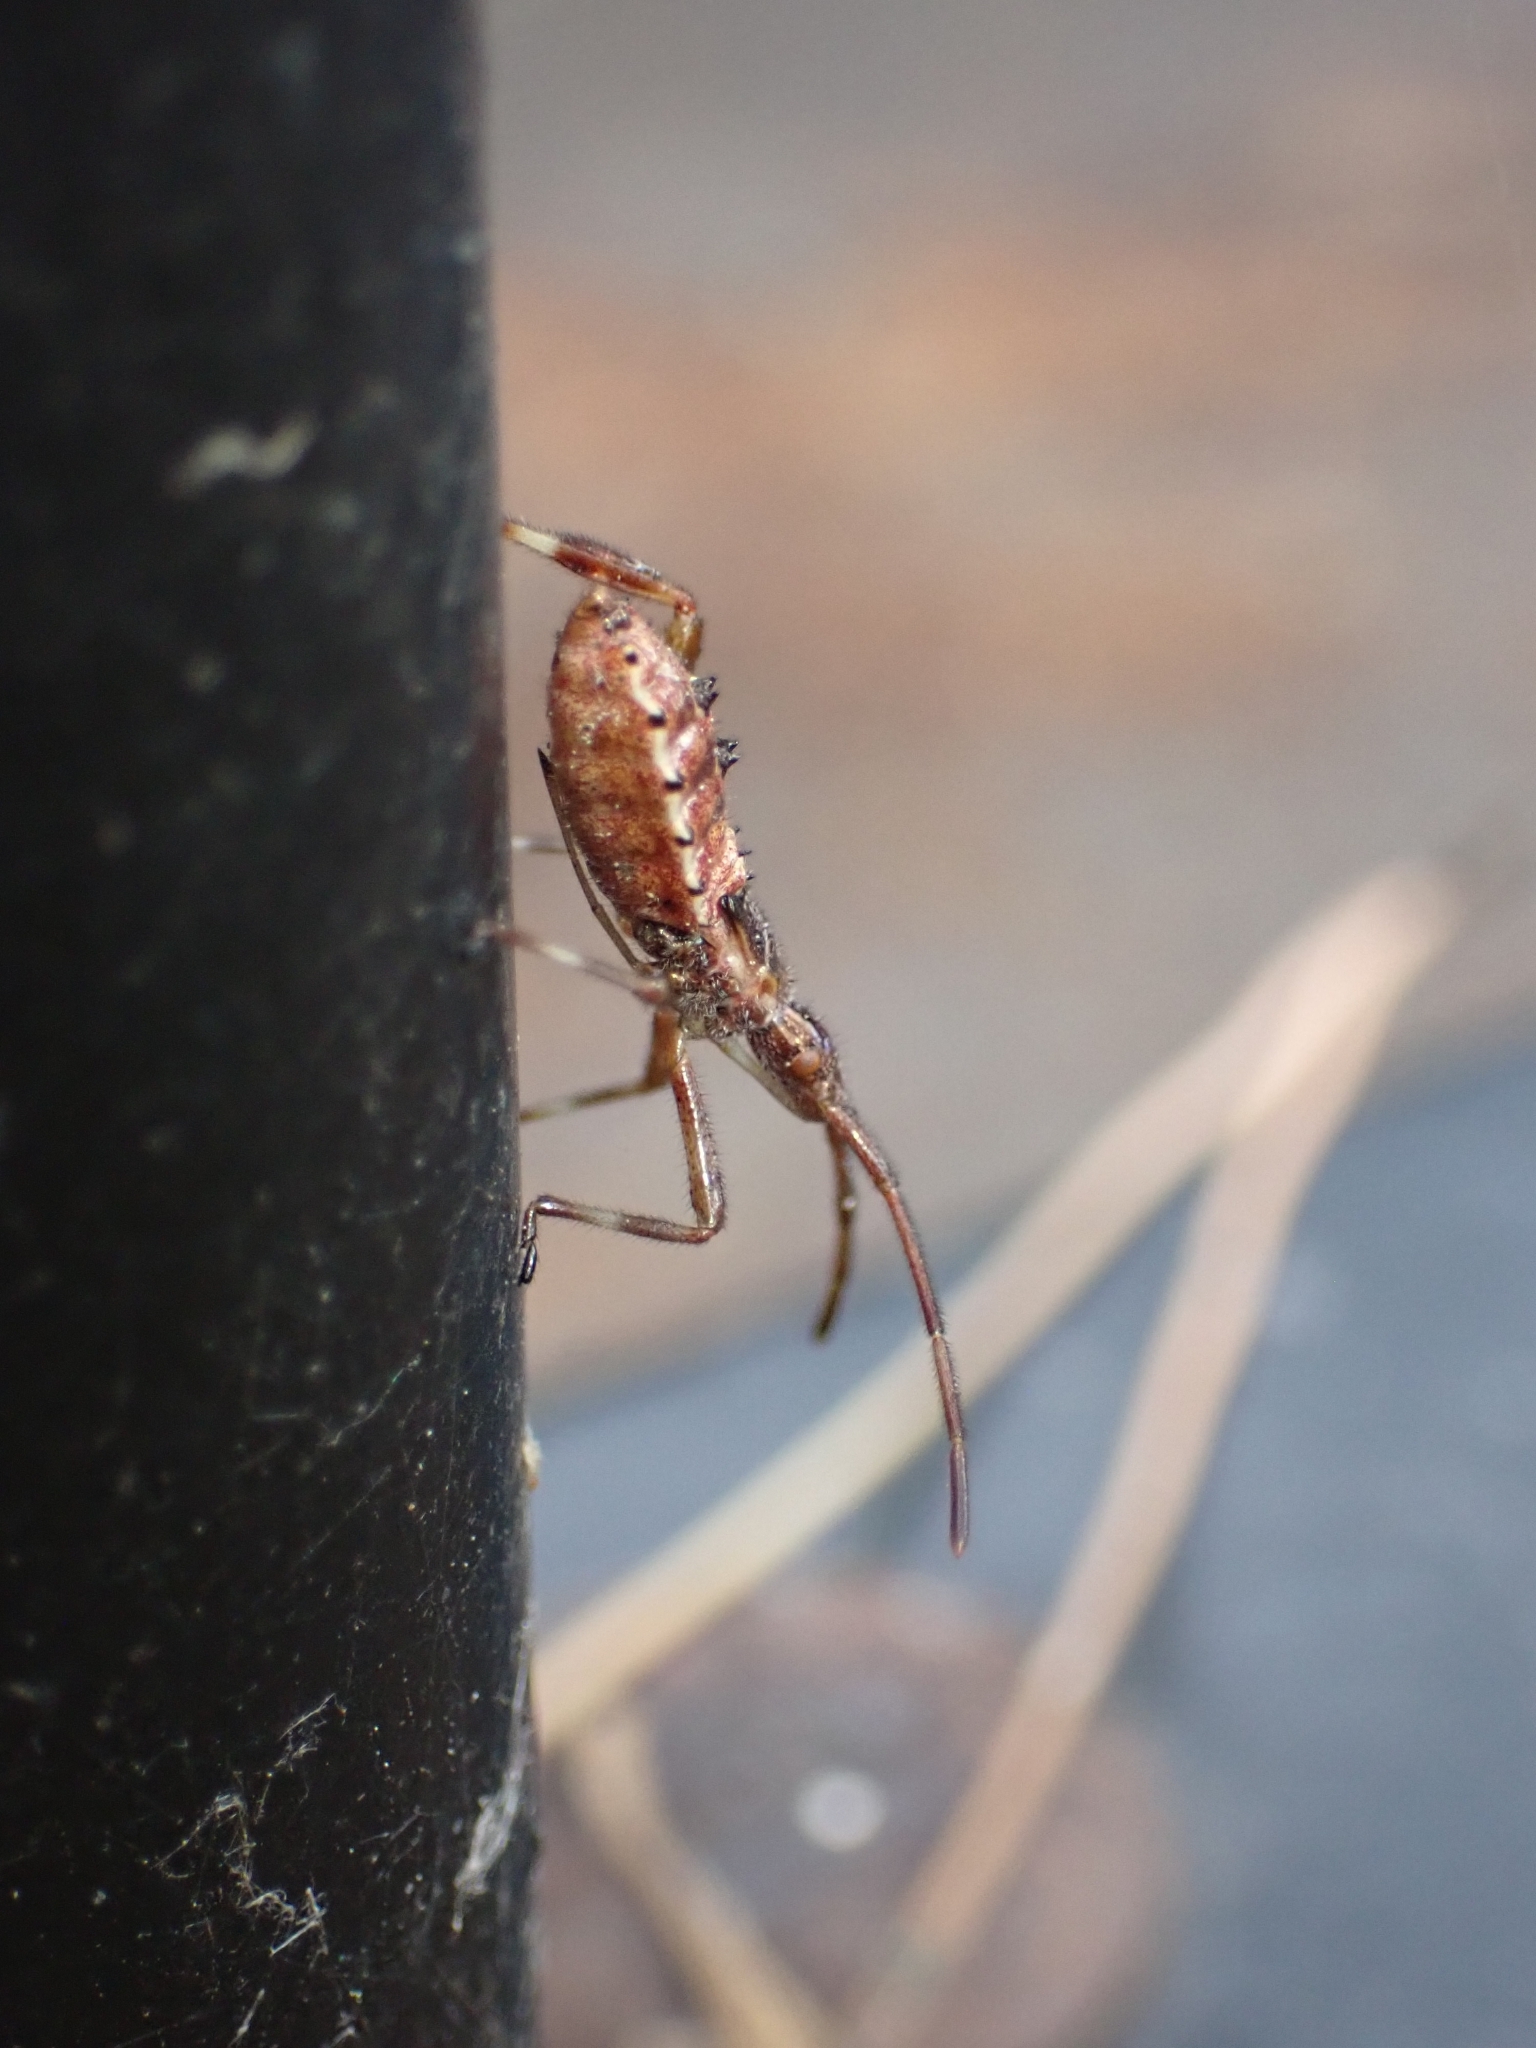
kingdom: Animalia
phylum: Arthropoda
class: Insecta
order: Hemiptera
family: Coreidae
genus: Leptoglossus
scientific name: Leptoglossus occidentalis
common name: Western conifer-seed bug
